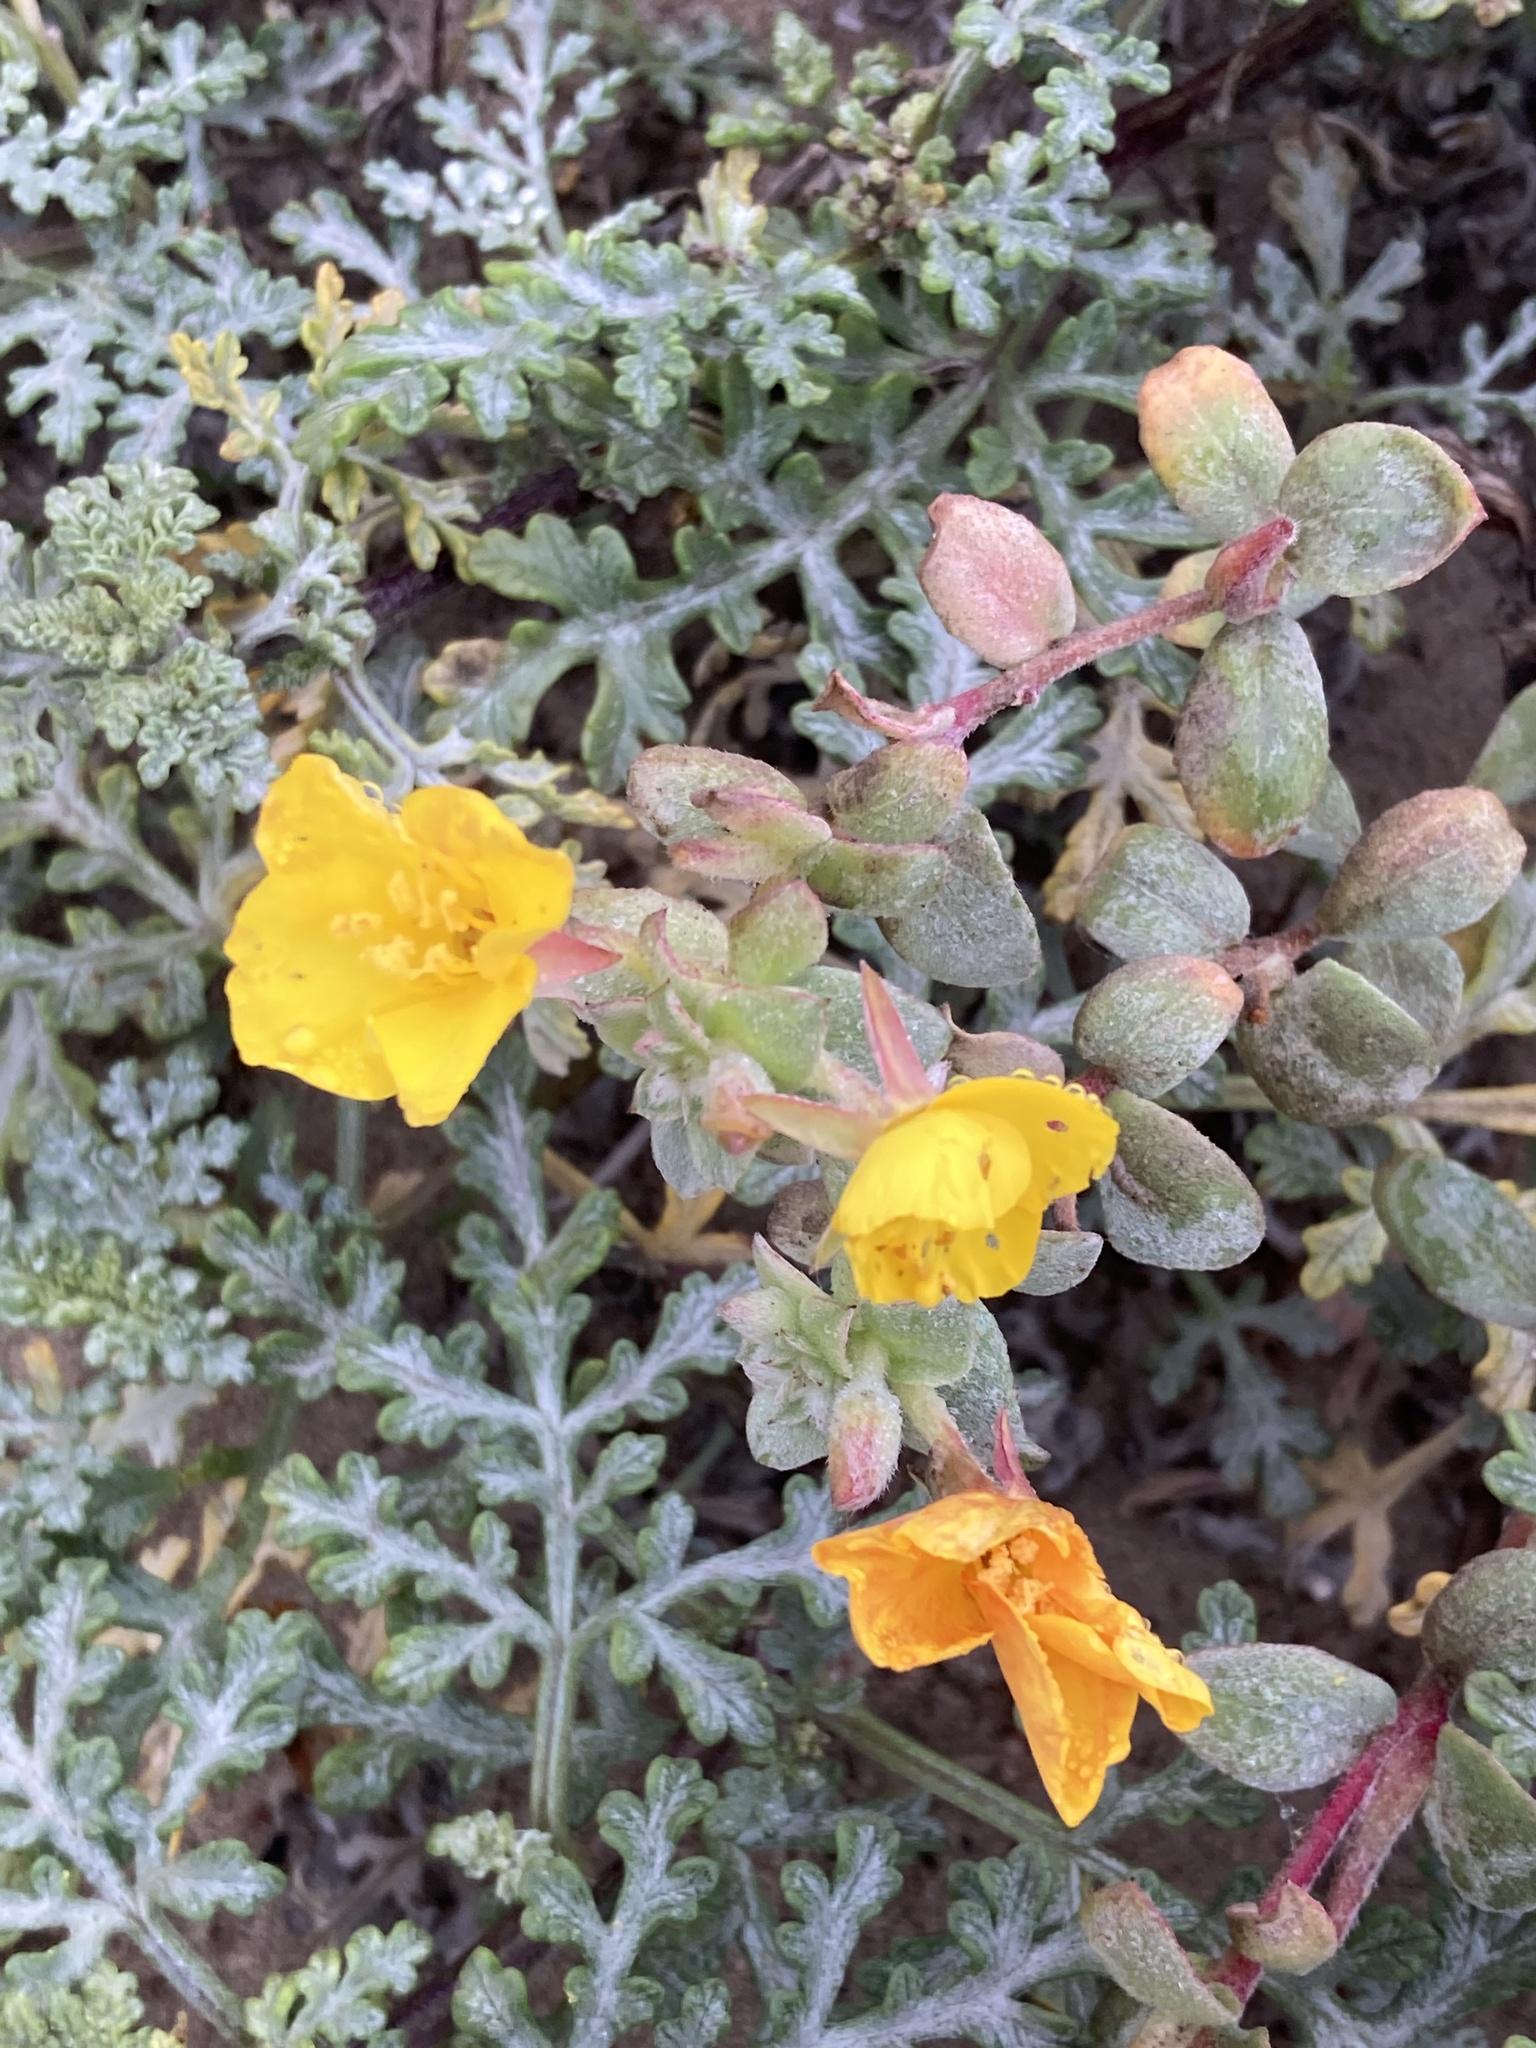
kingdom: Plantae
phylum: Tracheophyta
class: Magnoliopsida
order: Myrtales
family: Onagraceae
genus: Camissoniopsis
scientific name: Camissoniopsis cheiranthifolia
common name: Beach suncup
